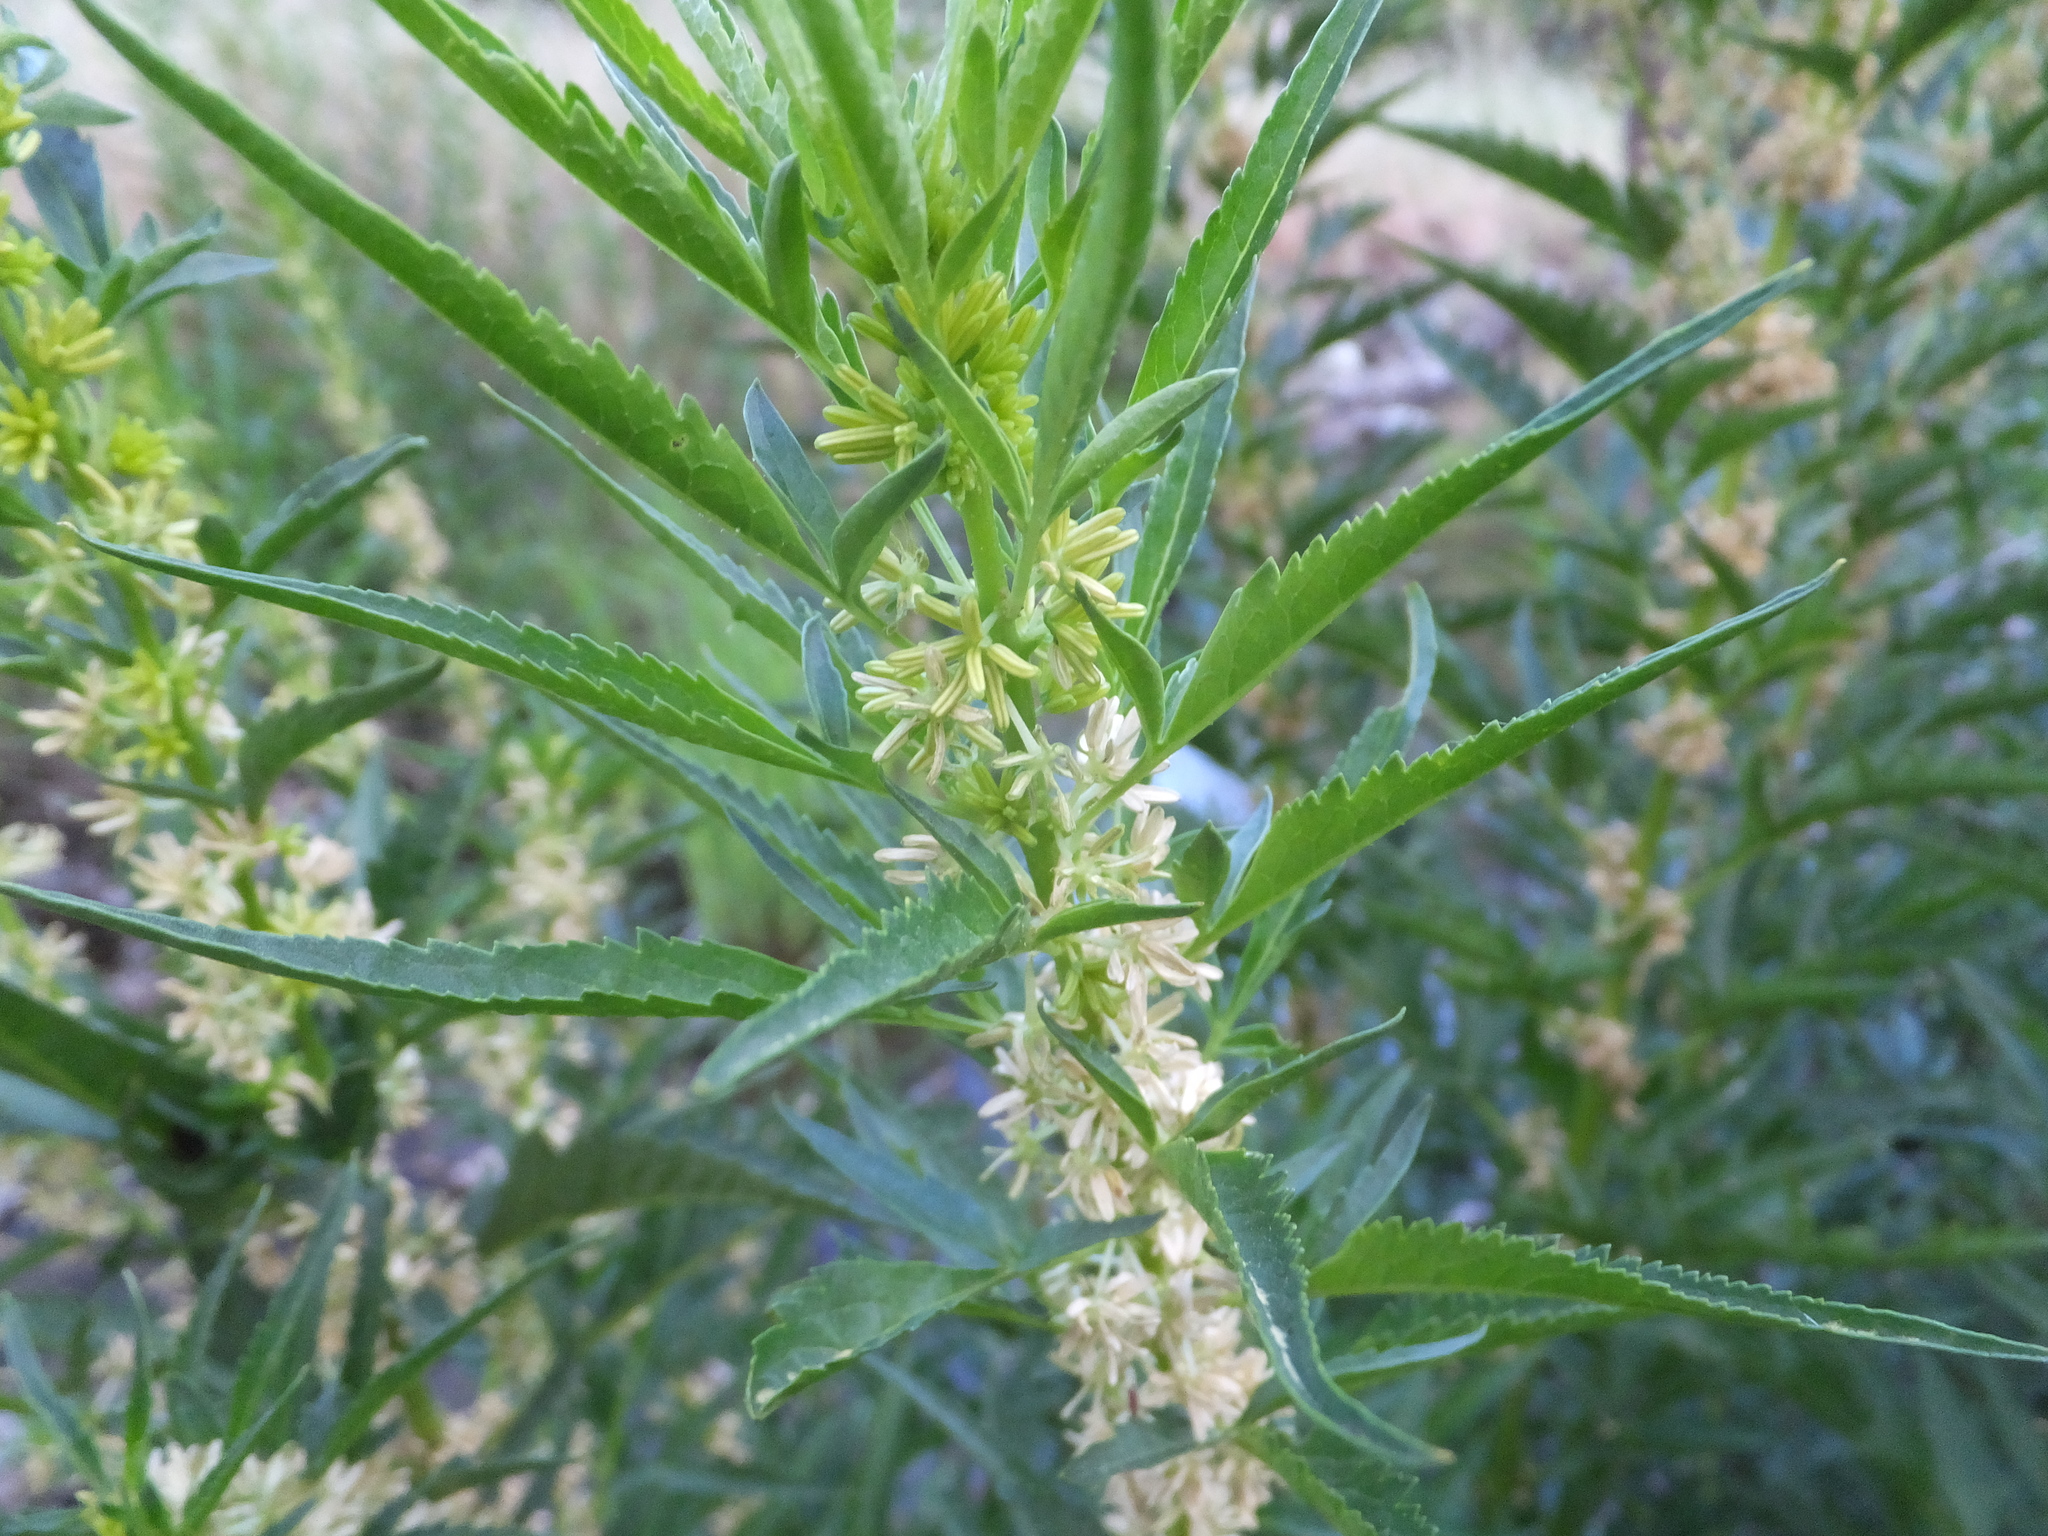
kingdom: Plantae
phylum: Tracheophyta
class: Magnoliopsida
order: Cucurbitales
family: Datiscaceae
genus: Datisca
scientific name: Datisca glomerata
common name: Durango-root
